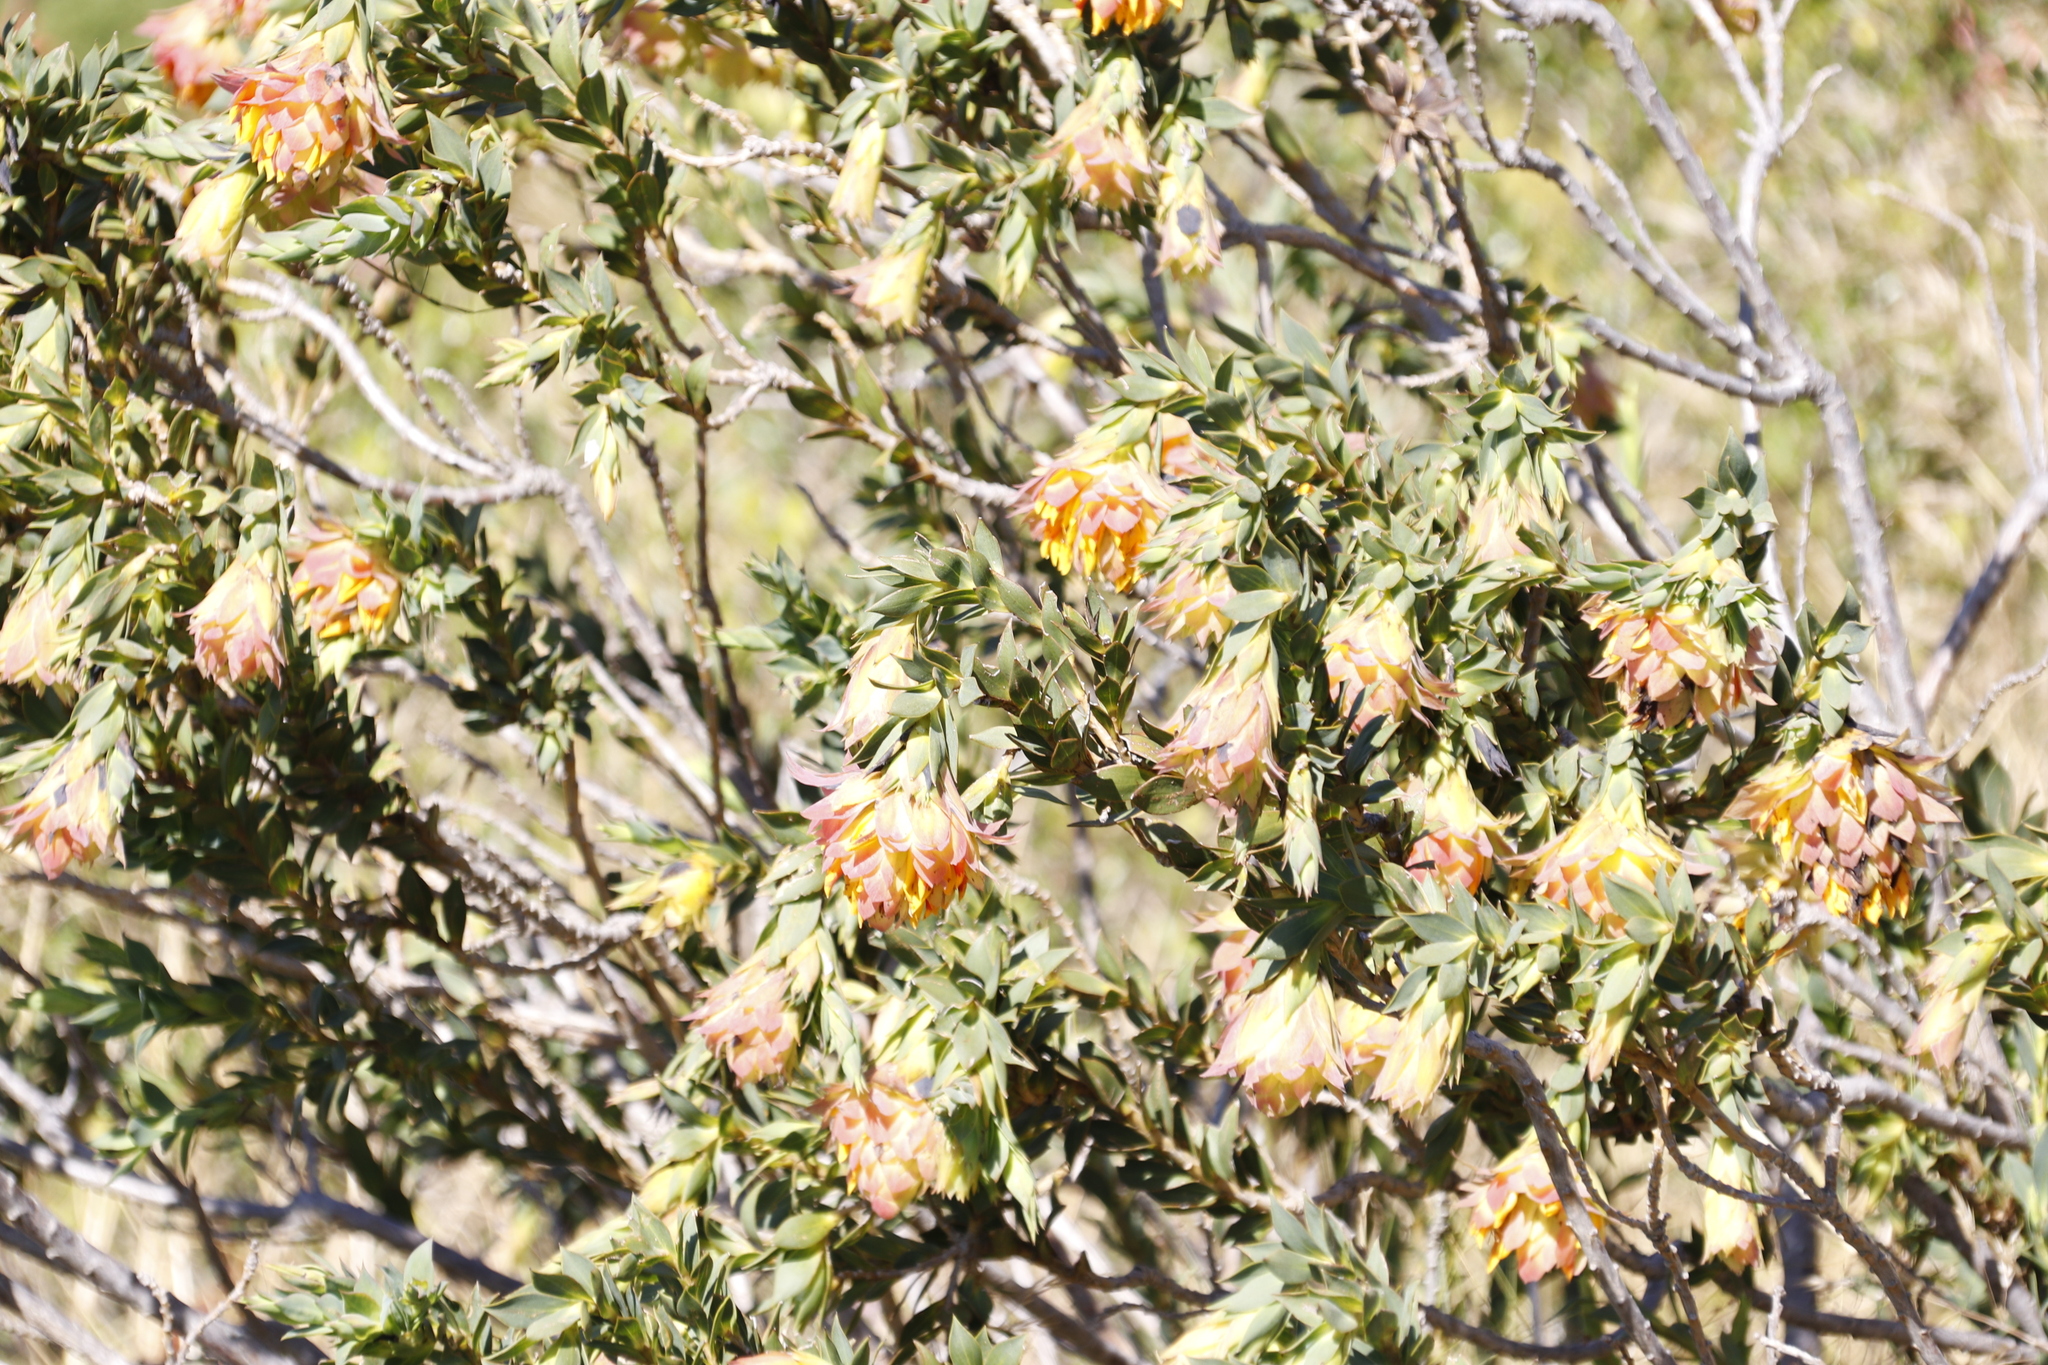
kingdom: Plantae
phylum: Tracheophyta
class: Magnoliopsida
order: Fabales
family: Fabaceae
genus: Liparia
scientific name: Liparia splendens
